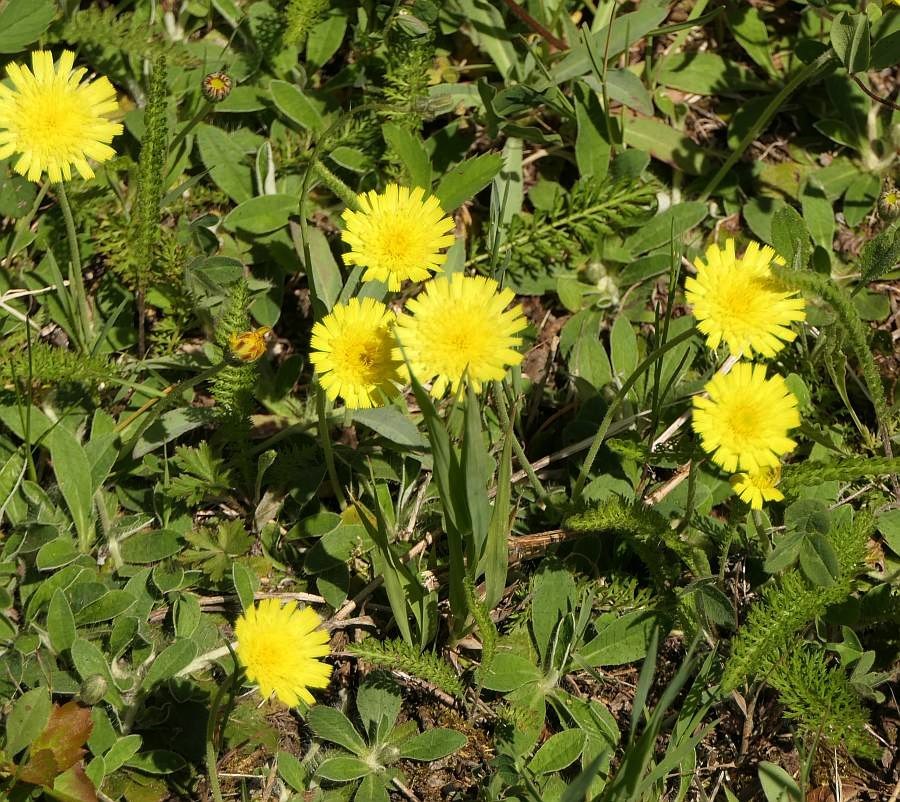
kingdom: Plantae
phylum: Tracheophyta
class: Magnoliopsida
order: Asterales
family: Asteraceae
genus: Pilosella
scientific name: Pilosella officinarum
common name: Mouse-ear hawkweed
